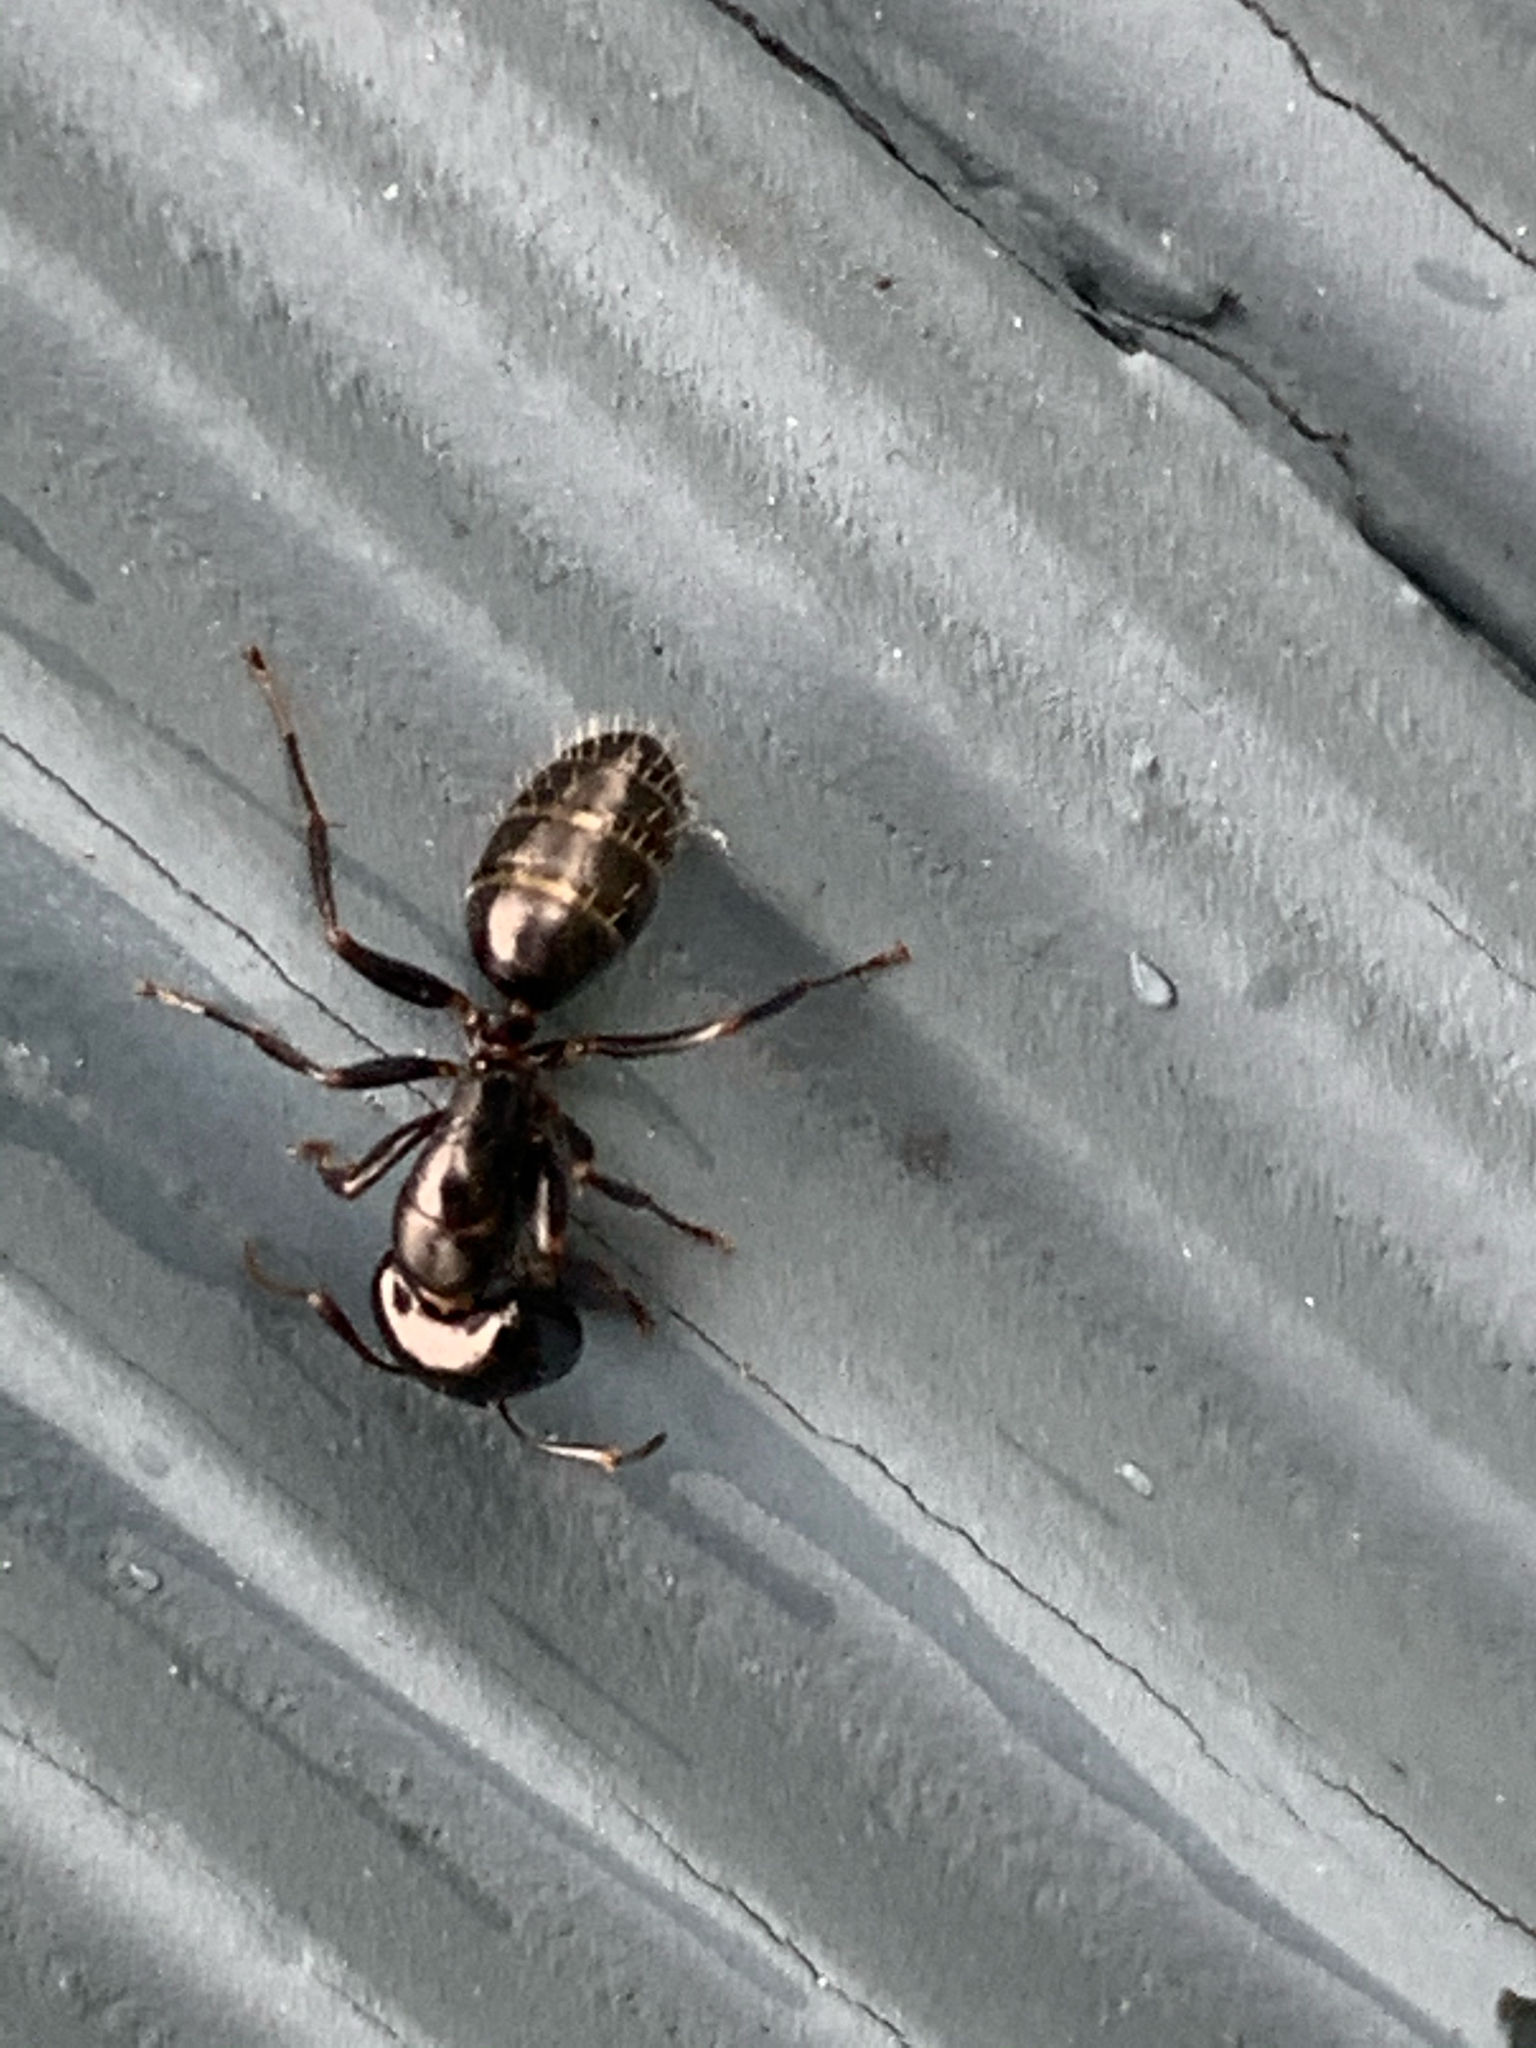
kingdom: Animalia
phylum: Arthropoda
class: Insecta
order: Hymenoptera
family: Formicidae
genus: Camponotus
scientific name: Camponotus
